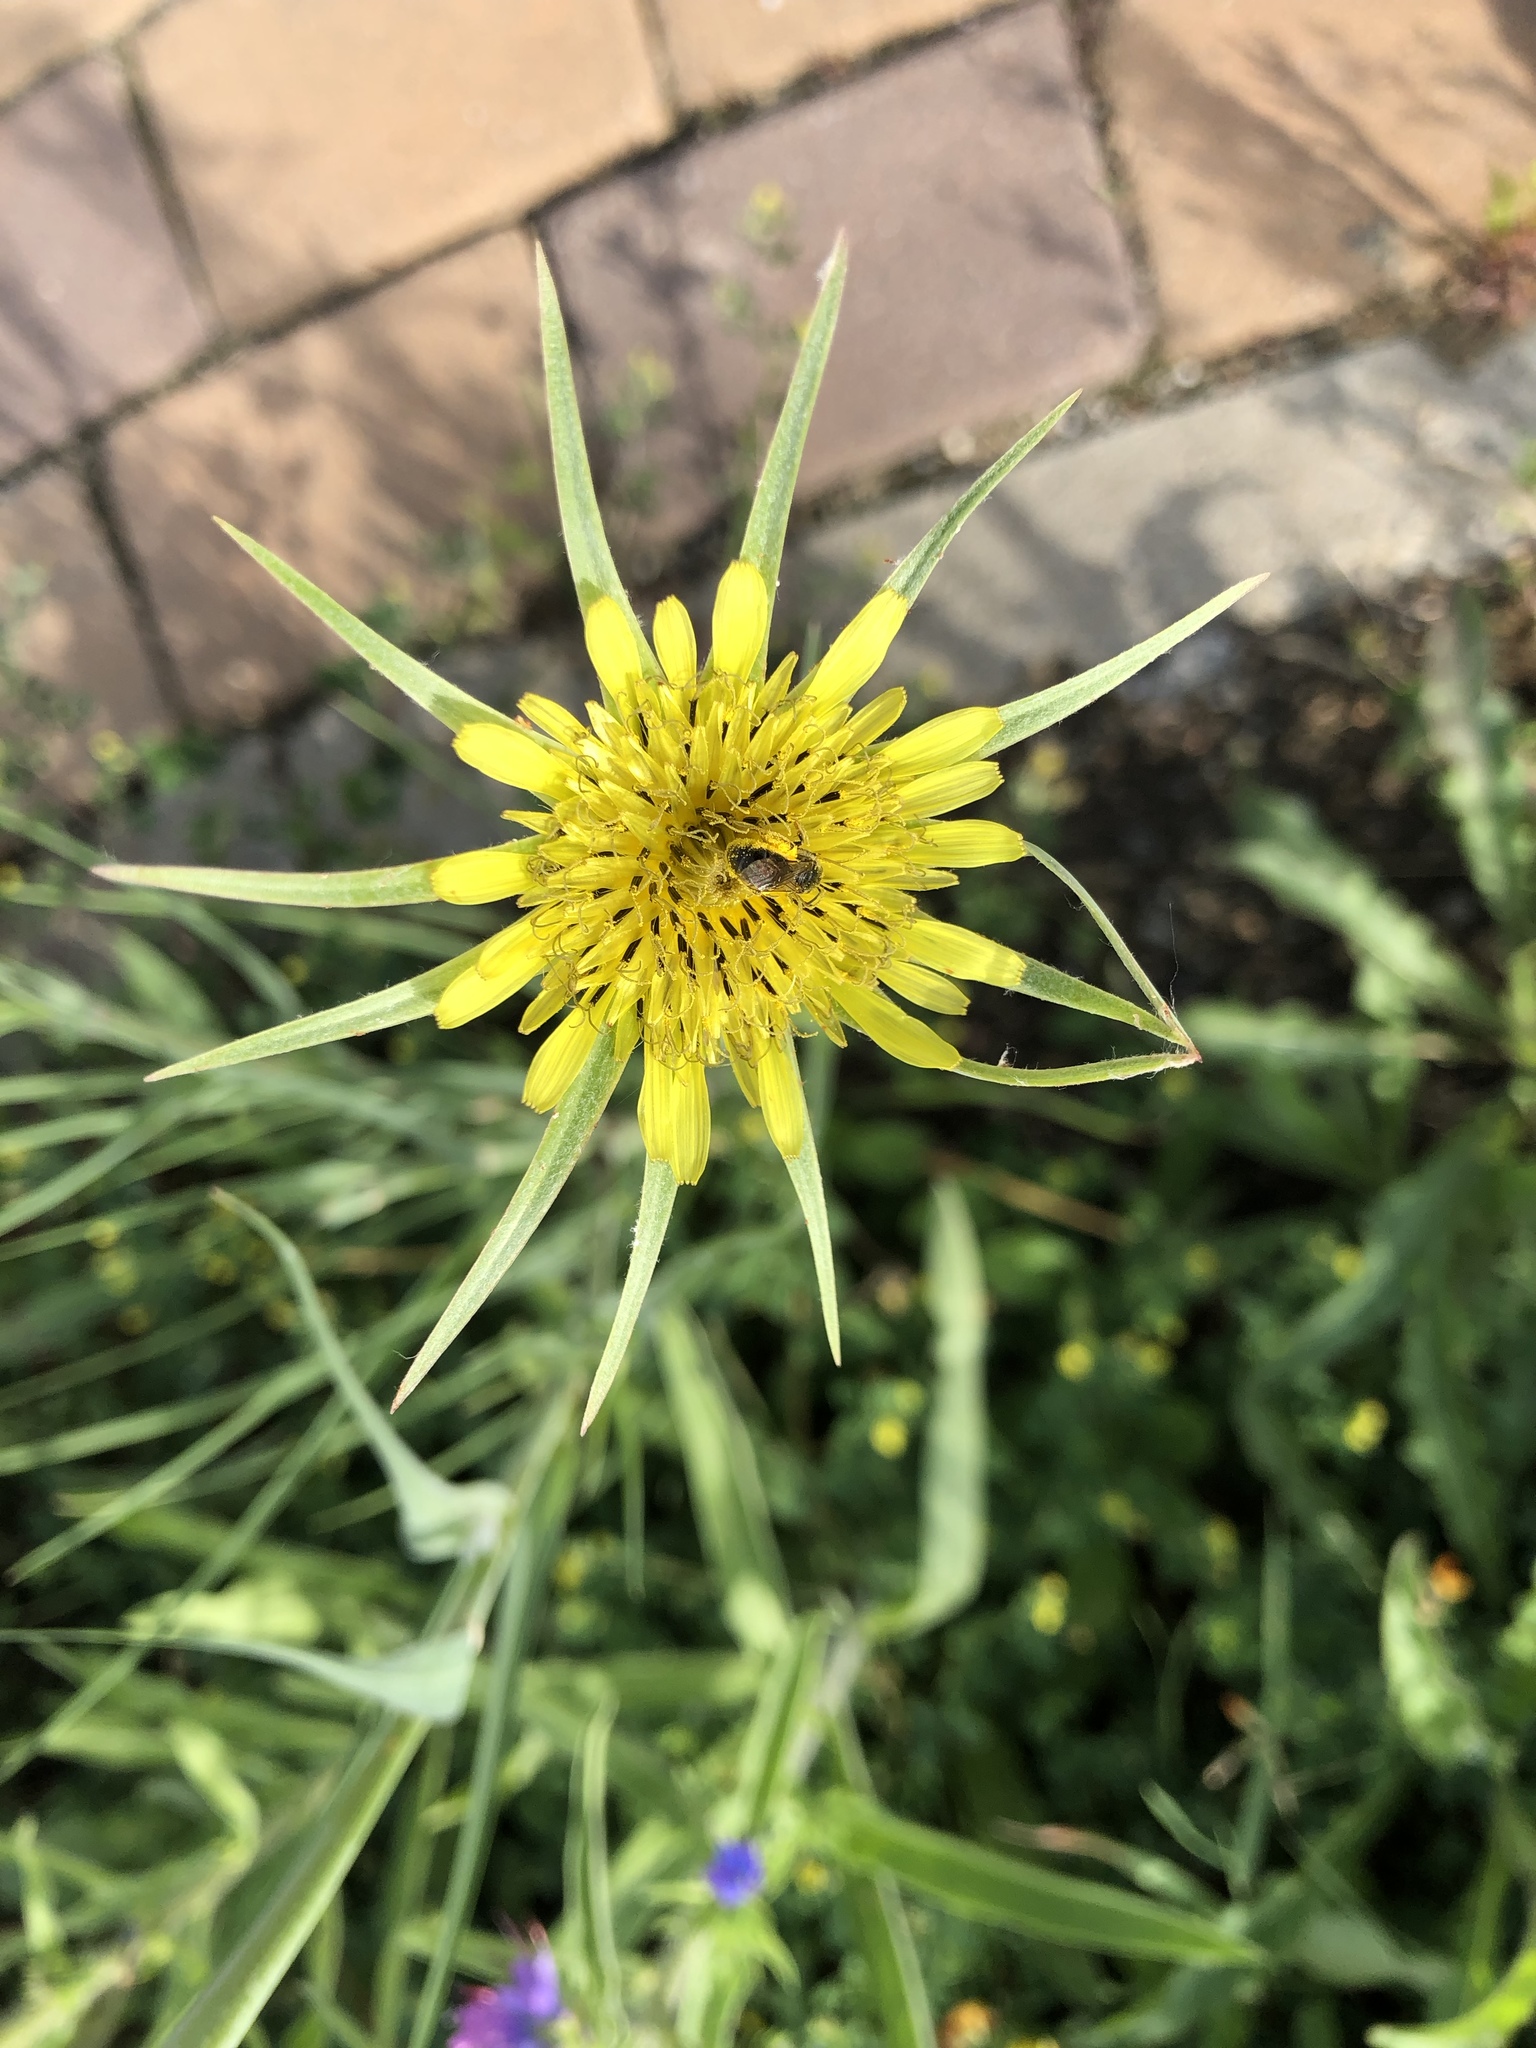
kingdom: Plantae
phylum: Tracheophyta
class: Magnoliopsida
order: Asterales
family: Asteraceae
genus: Tragopogon
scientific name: Tragopogon dubius
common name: Yellow salsify
